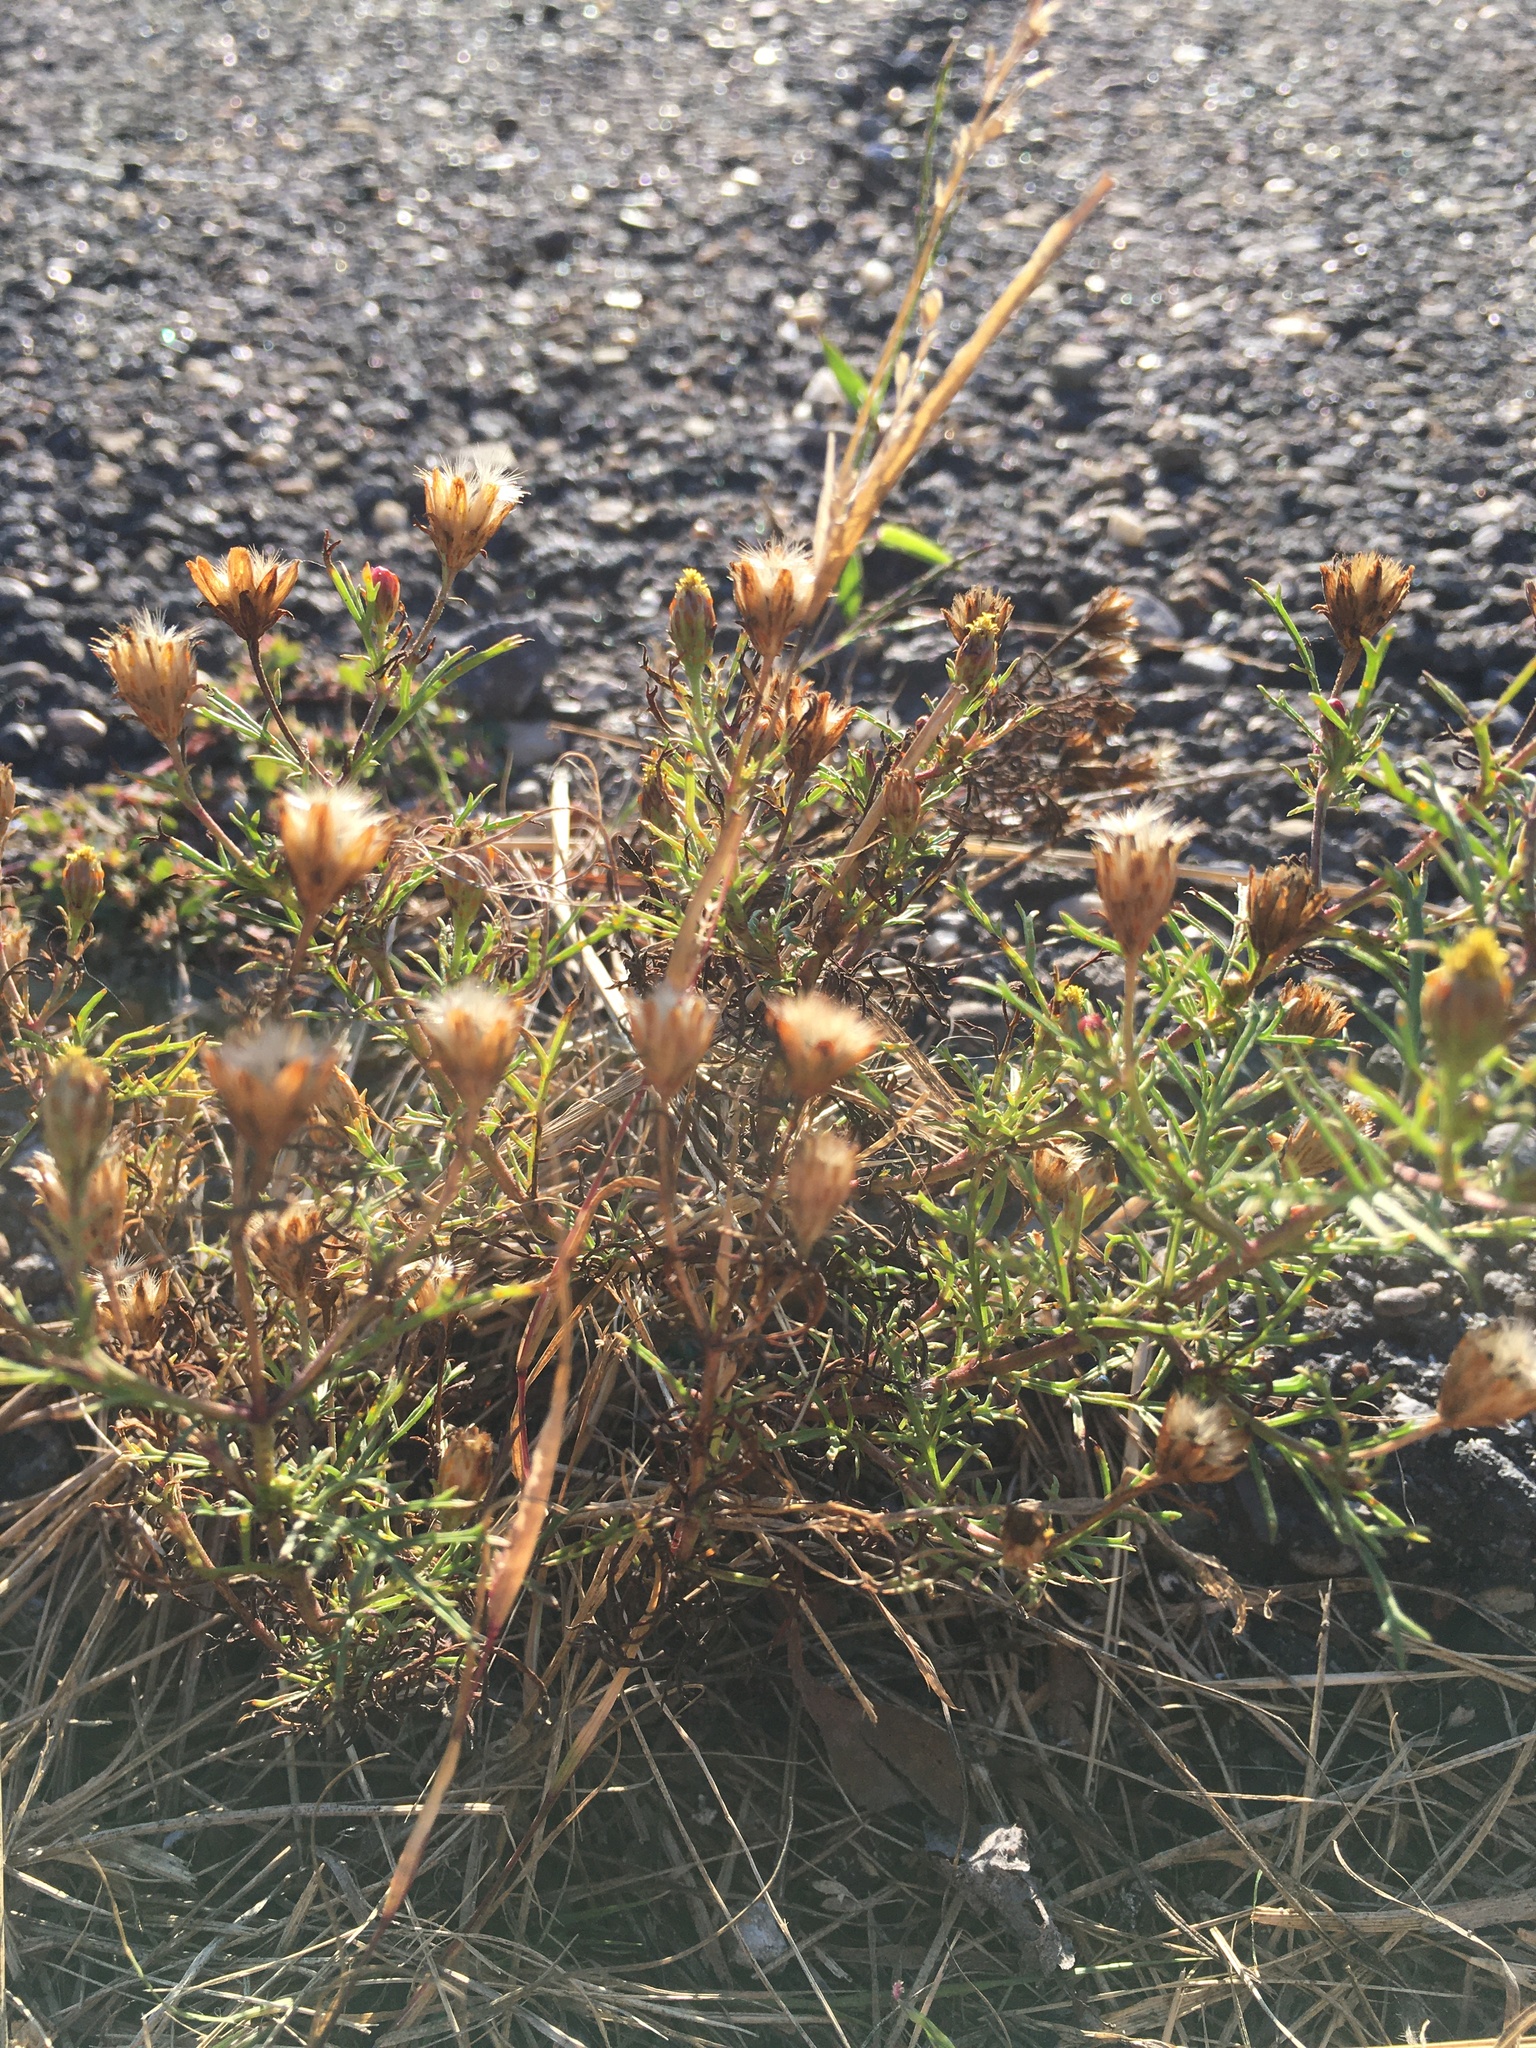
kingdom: Plantae
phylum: Tracheophyta
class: Magnoliopsida
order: Asterales
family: Asteraceae
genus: Dyssodia
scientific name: Dyssodia papposa
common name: Dogweed
